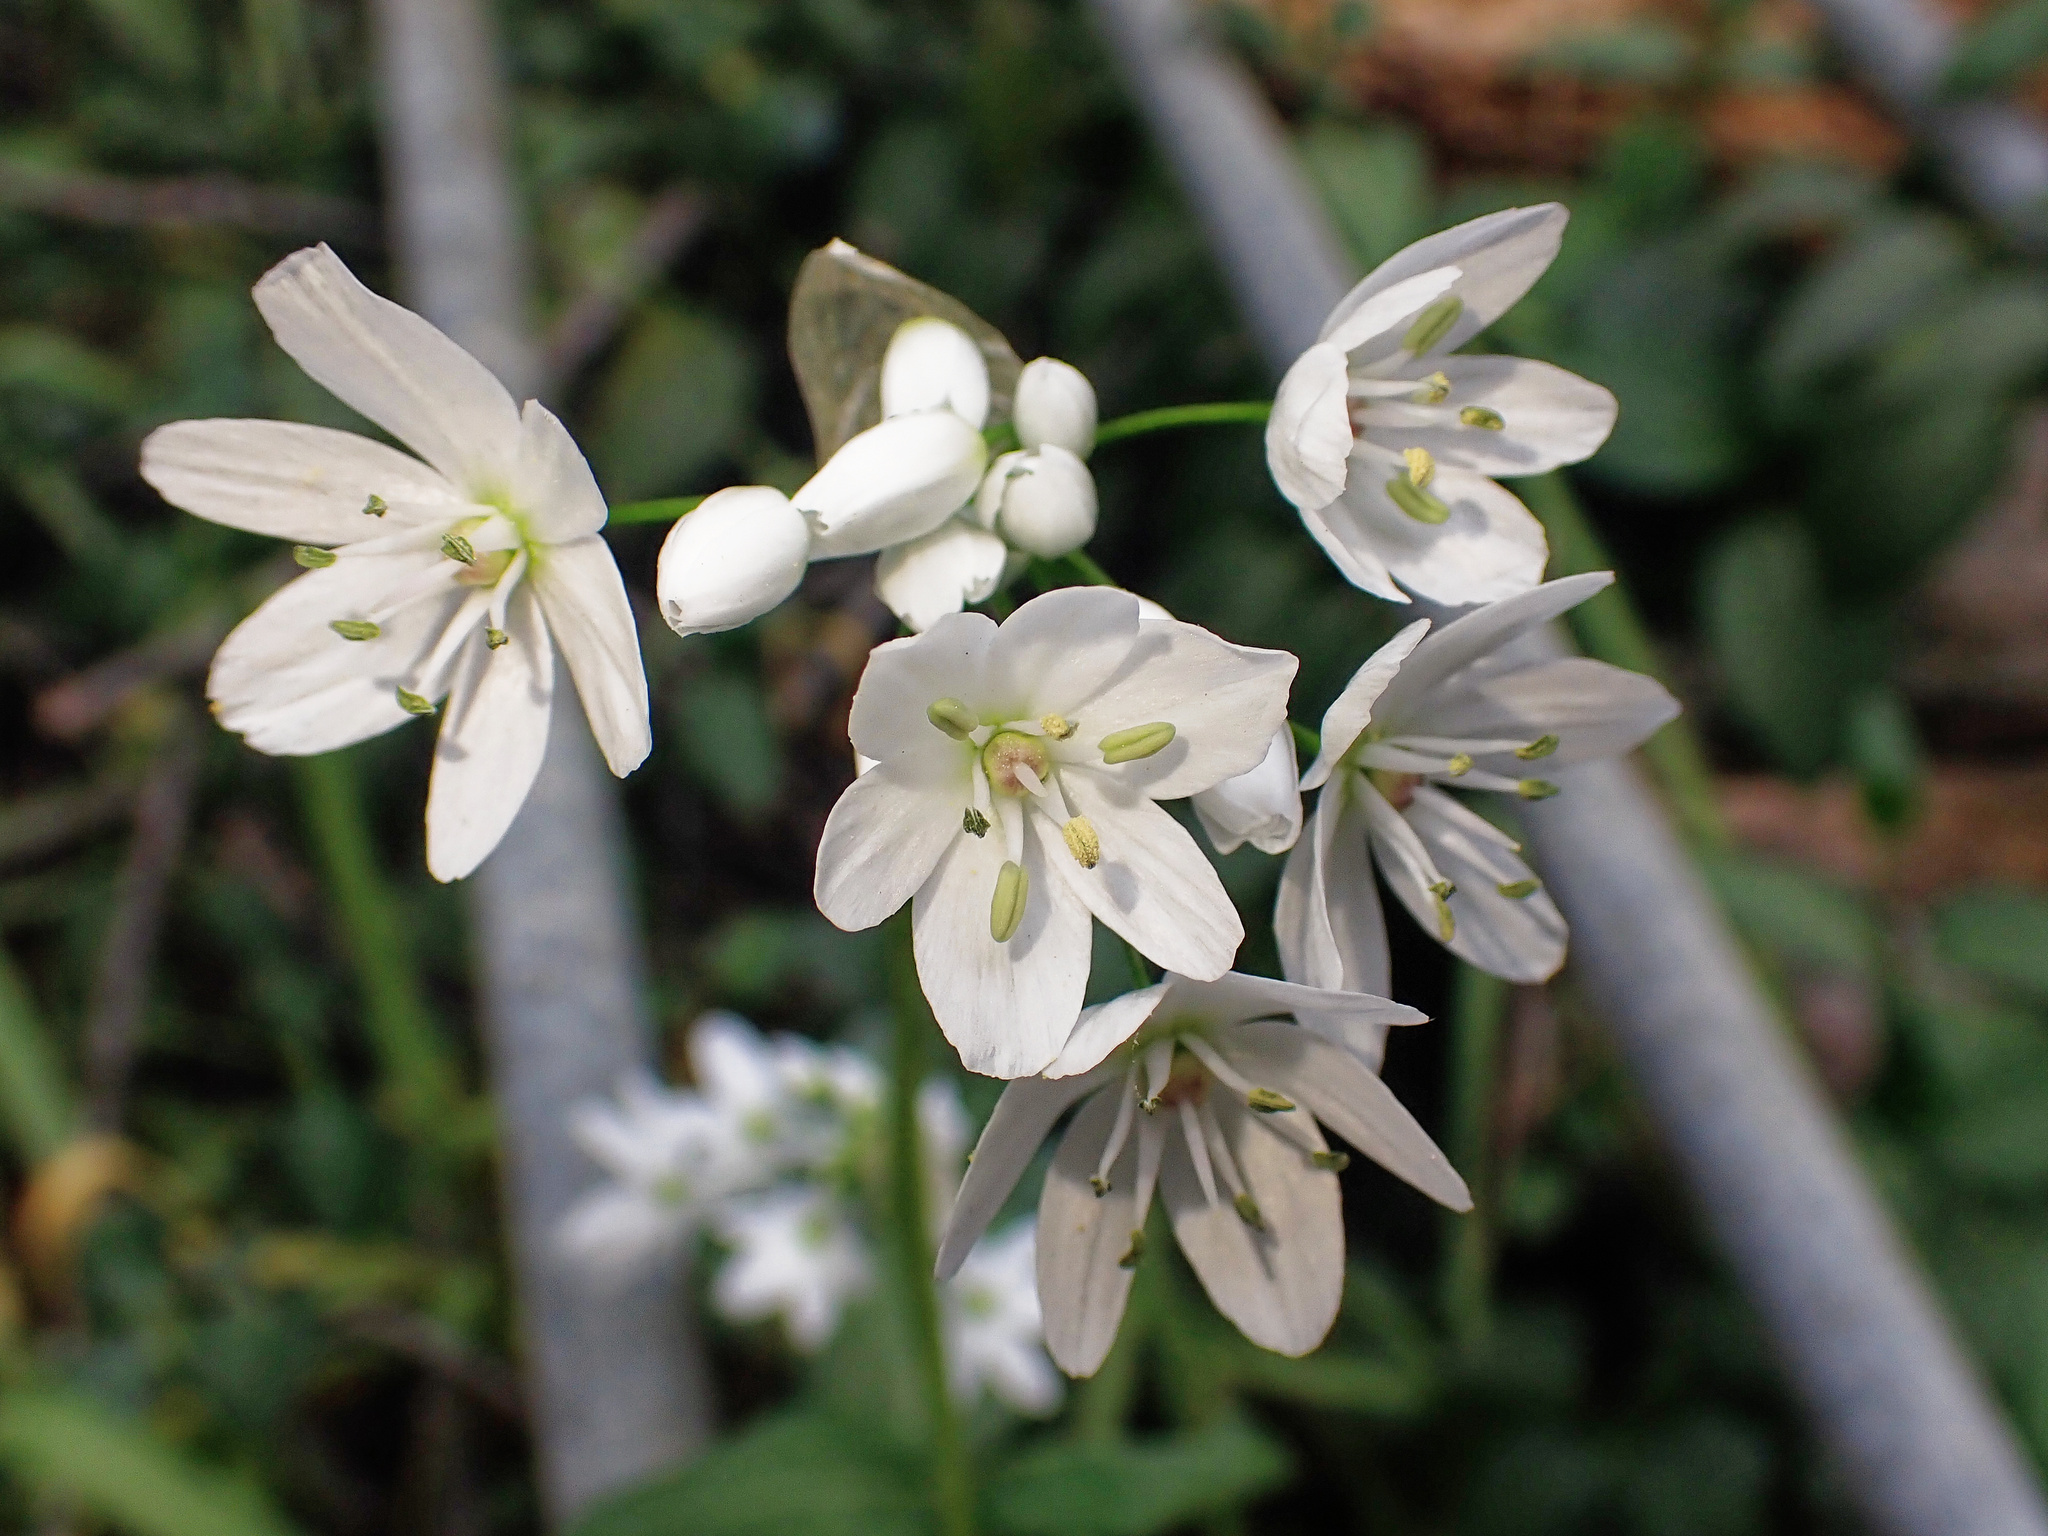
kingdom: Plantae
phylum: Tracheophyta
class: Liliopsida
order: Asparagales
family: Amaryllidaceae
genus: Allium
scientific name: Allium neapolitanum
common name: Neapolitan garlic
